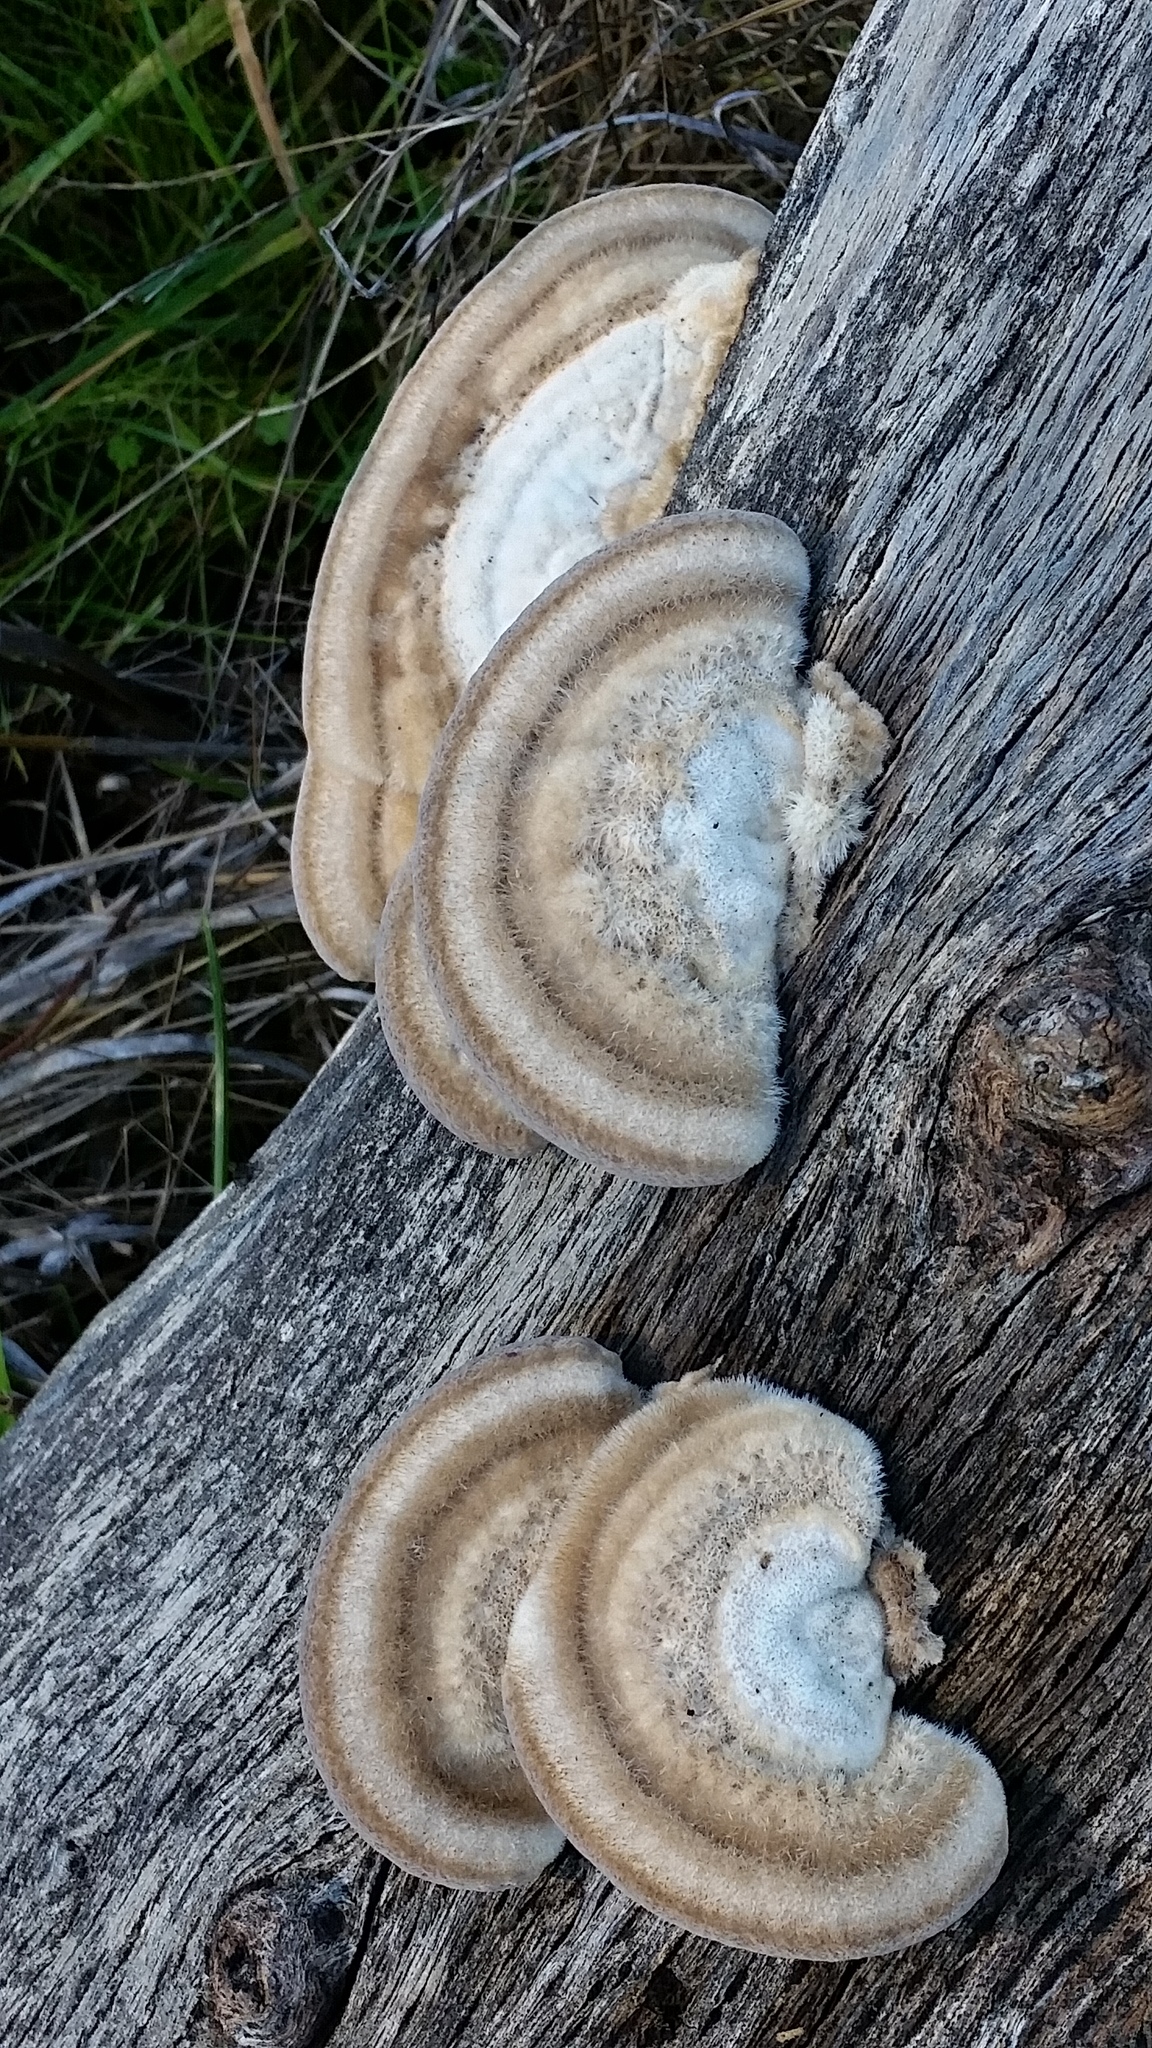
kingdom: Fungi
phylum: Basidiomycota
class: Agaricomycetes
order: Polyporales
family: Polyporaceae
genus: Trametes
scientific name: Trametes hirsuta
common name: Hairy bracket
